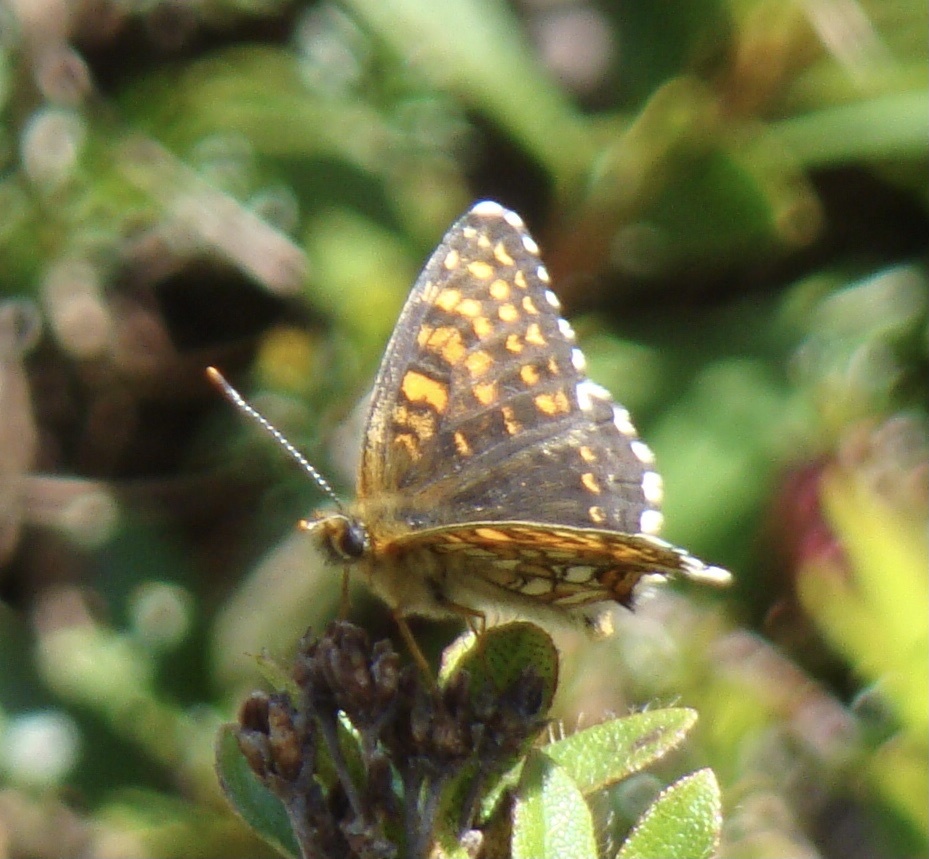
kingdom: Animalia
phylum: Arthropoda
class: Insecta
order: Lepidoptera
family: Nymphalidae
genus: Melitaea
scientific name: Melitaea diamina
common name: False heath fritillary
